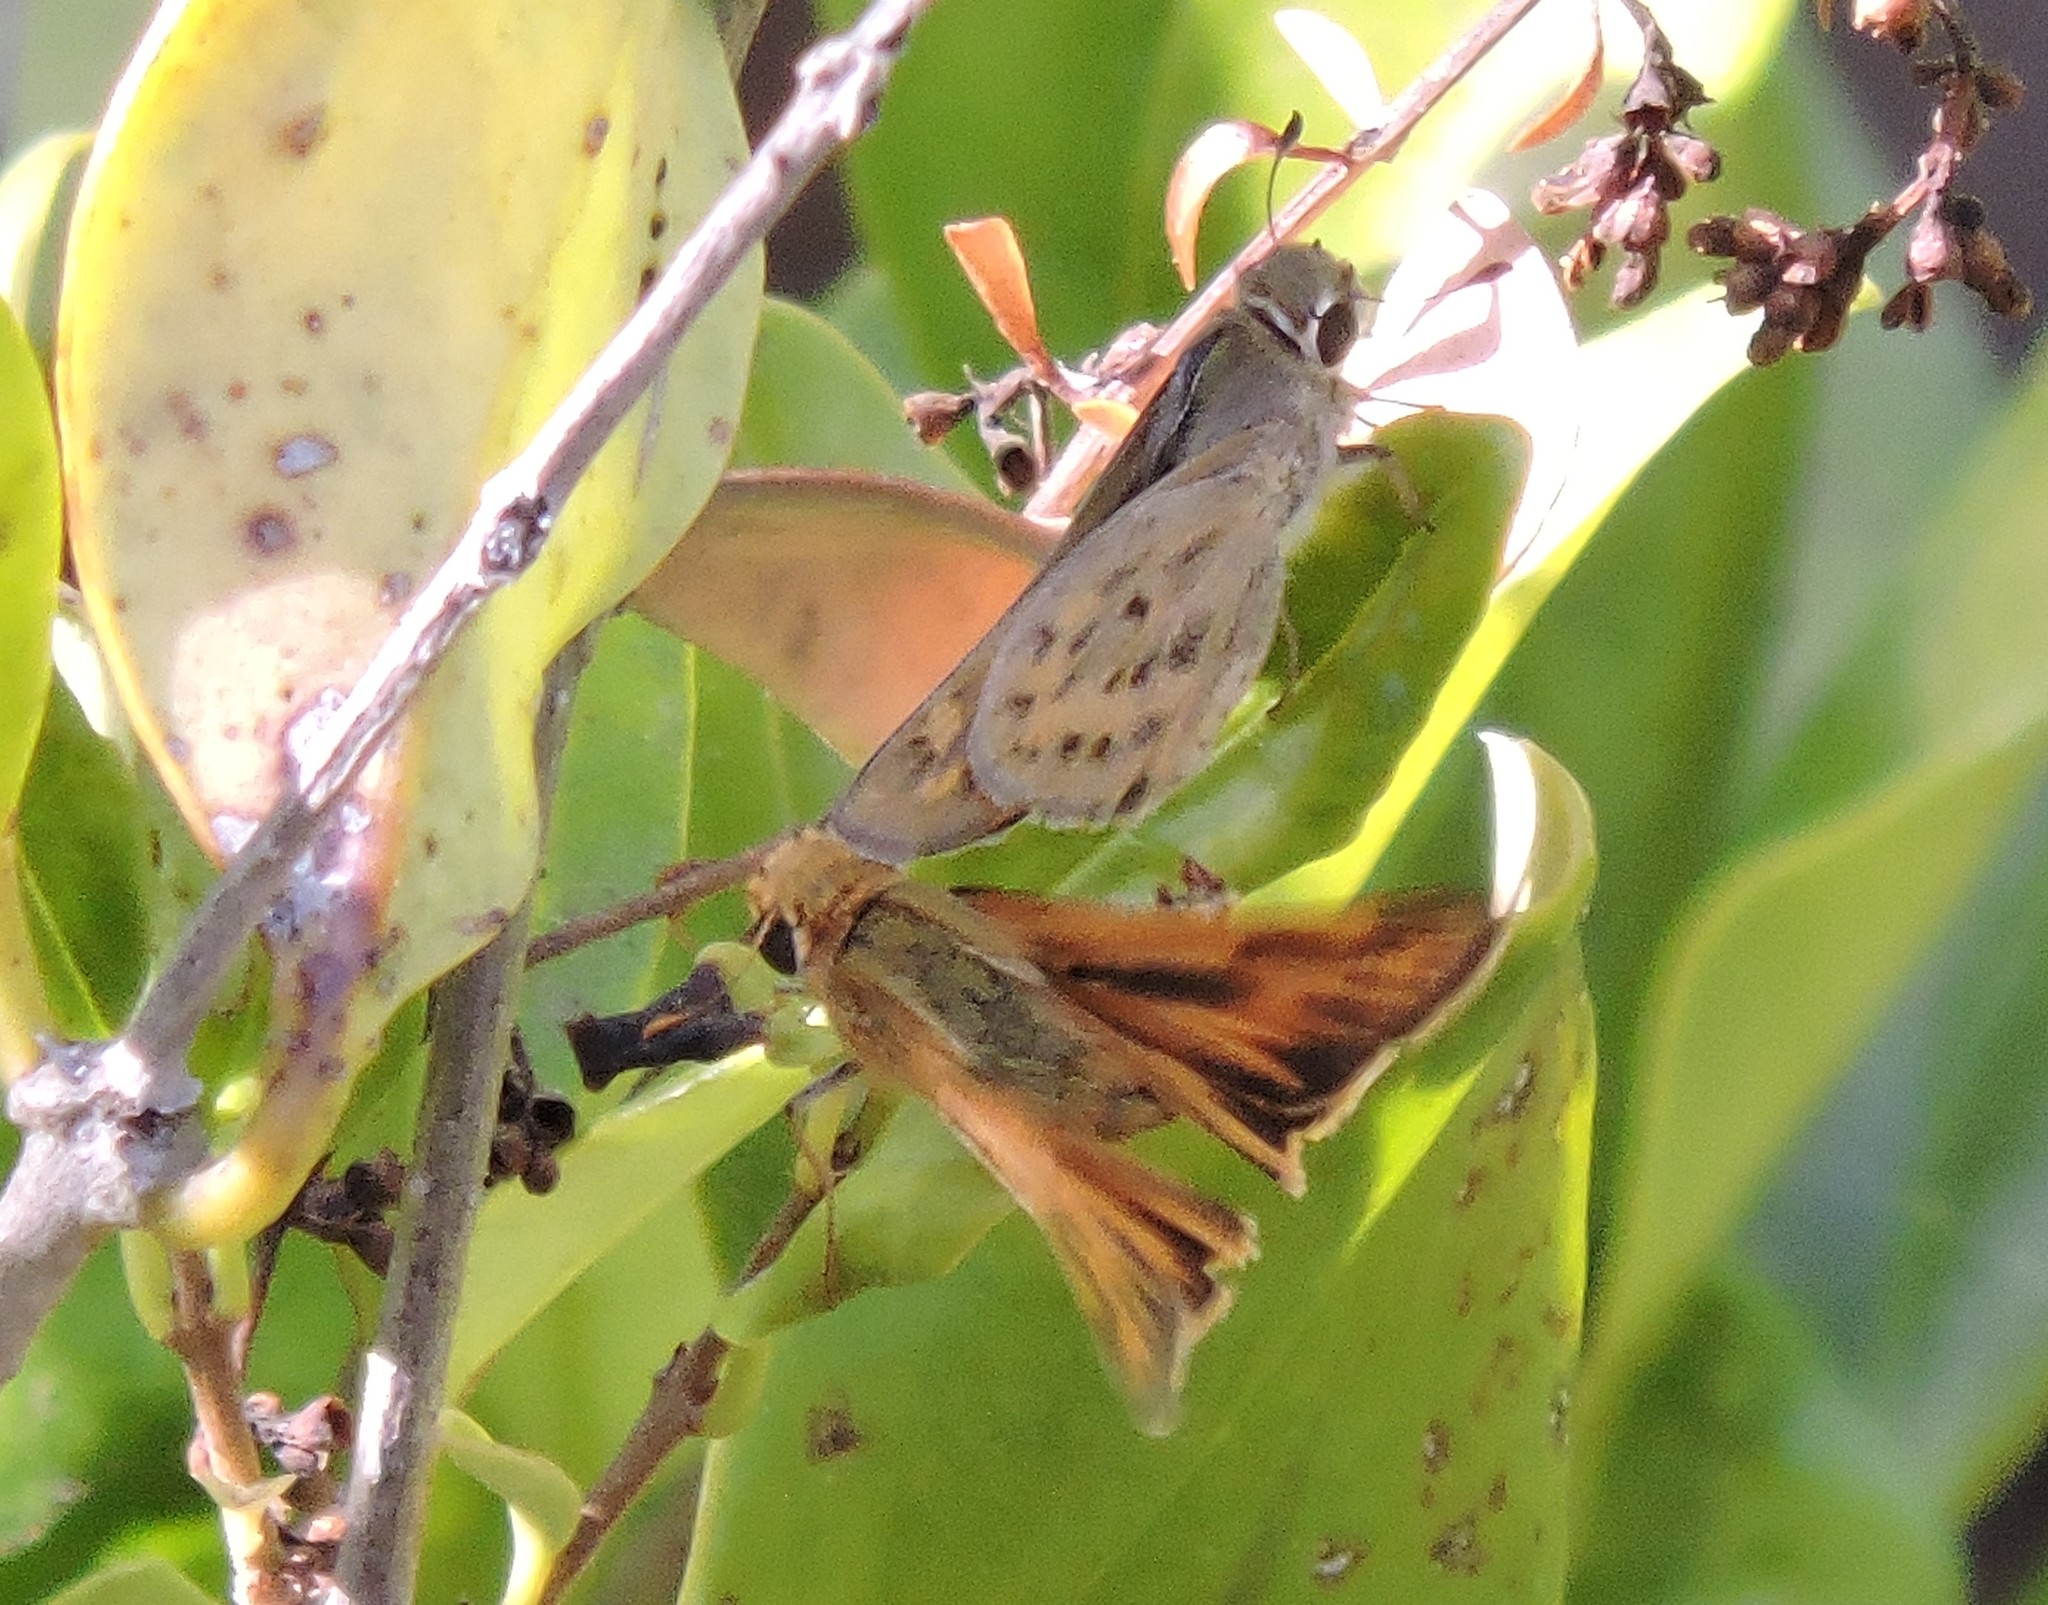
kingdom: Animalia
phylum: Arthropoda
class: Insecta
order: Lepidoptera
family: Hesperiidae
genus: Hylephila
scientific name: Hylephila phyleus
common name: Fiery skipper
